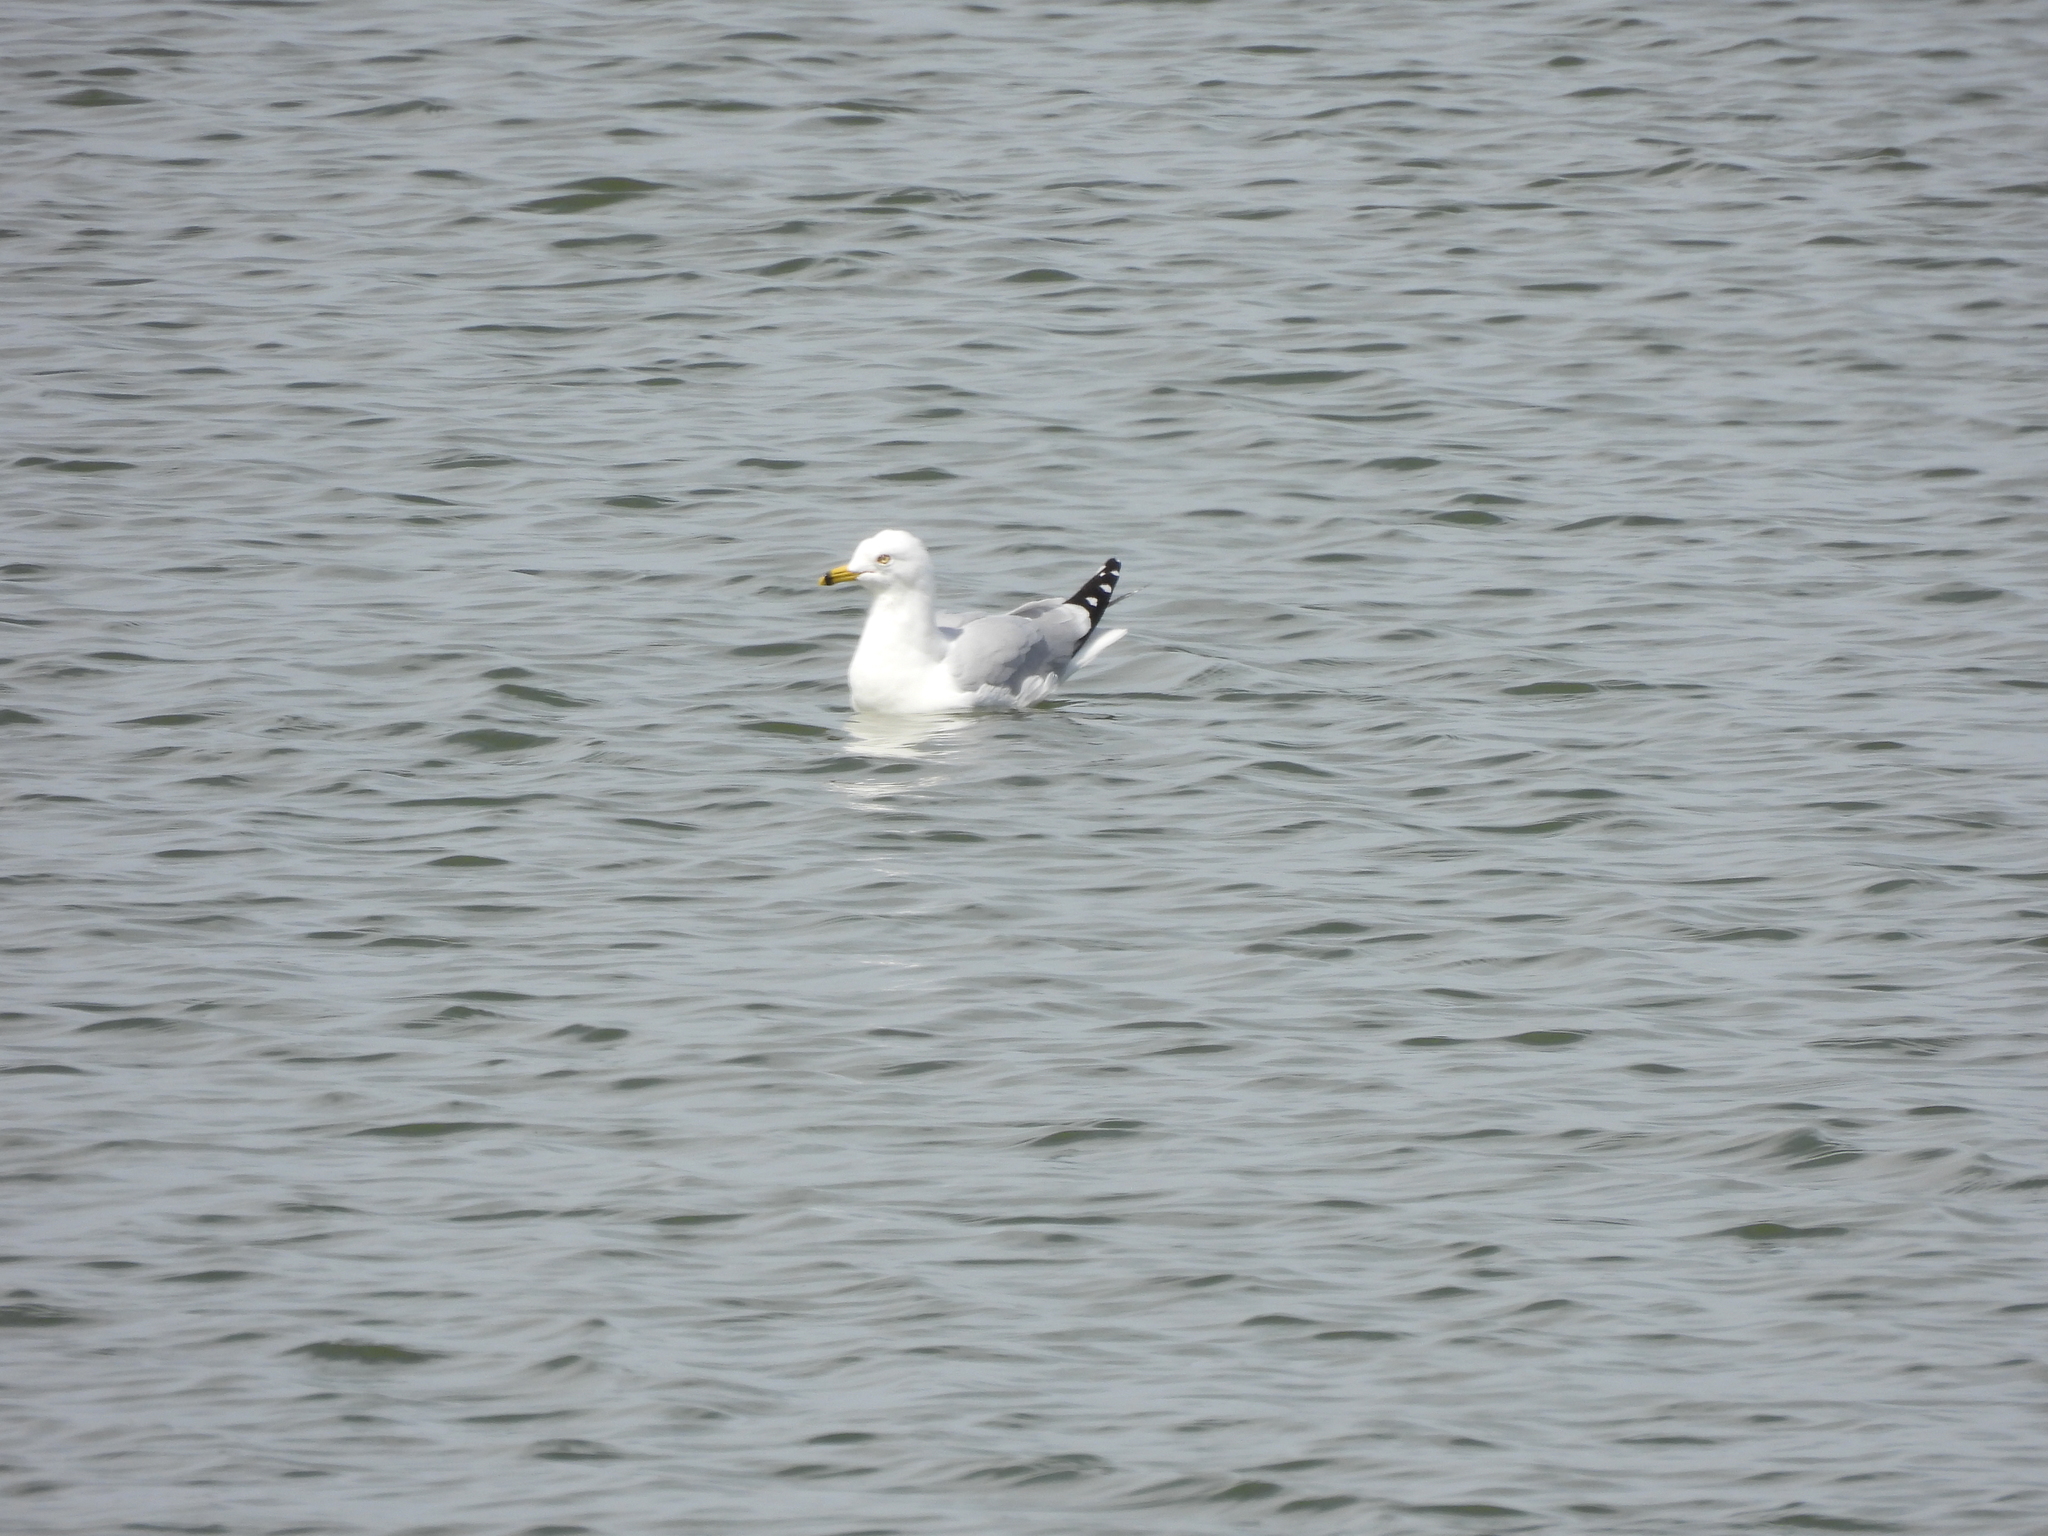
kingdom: Animalia
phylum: Chordata
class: Aves
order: Charadriiformes
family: Laridae
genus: Larus
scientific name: Larus delawarensis
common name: Ring-billed gull
